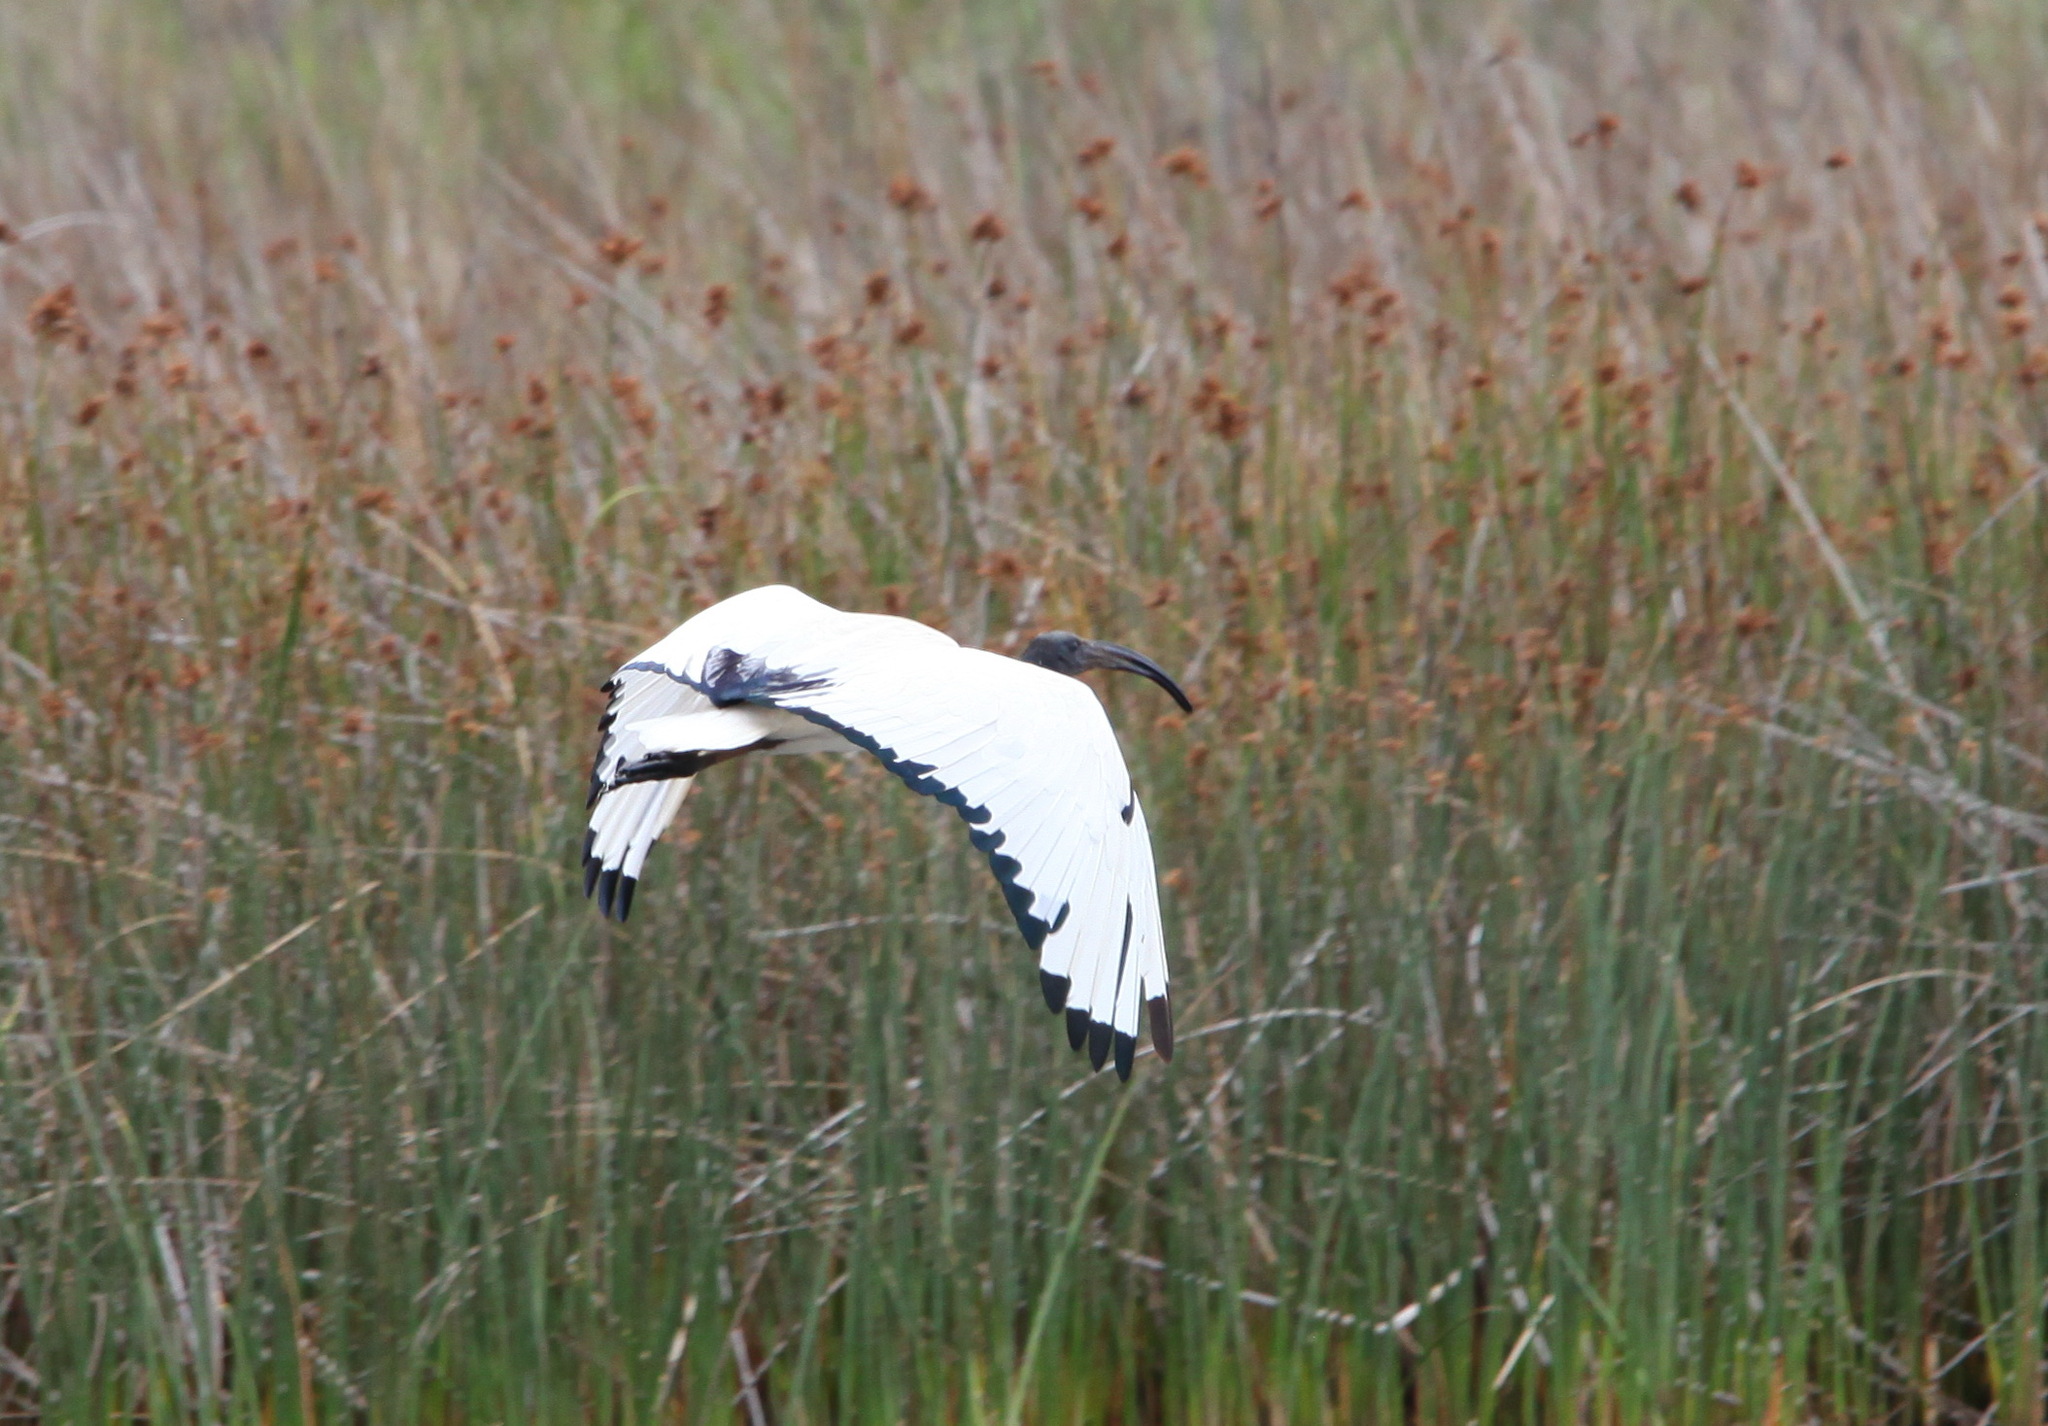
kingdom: Animalia
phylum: Chordata
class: Aves
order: Pelecaniformes
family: Threskiornithidae
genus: Threskiornis
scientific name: Threskiornis aethiopicus
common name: Sacred ibis
